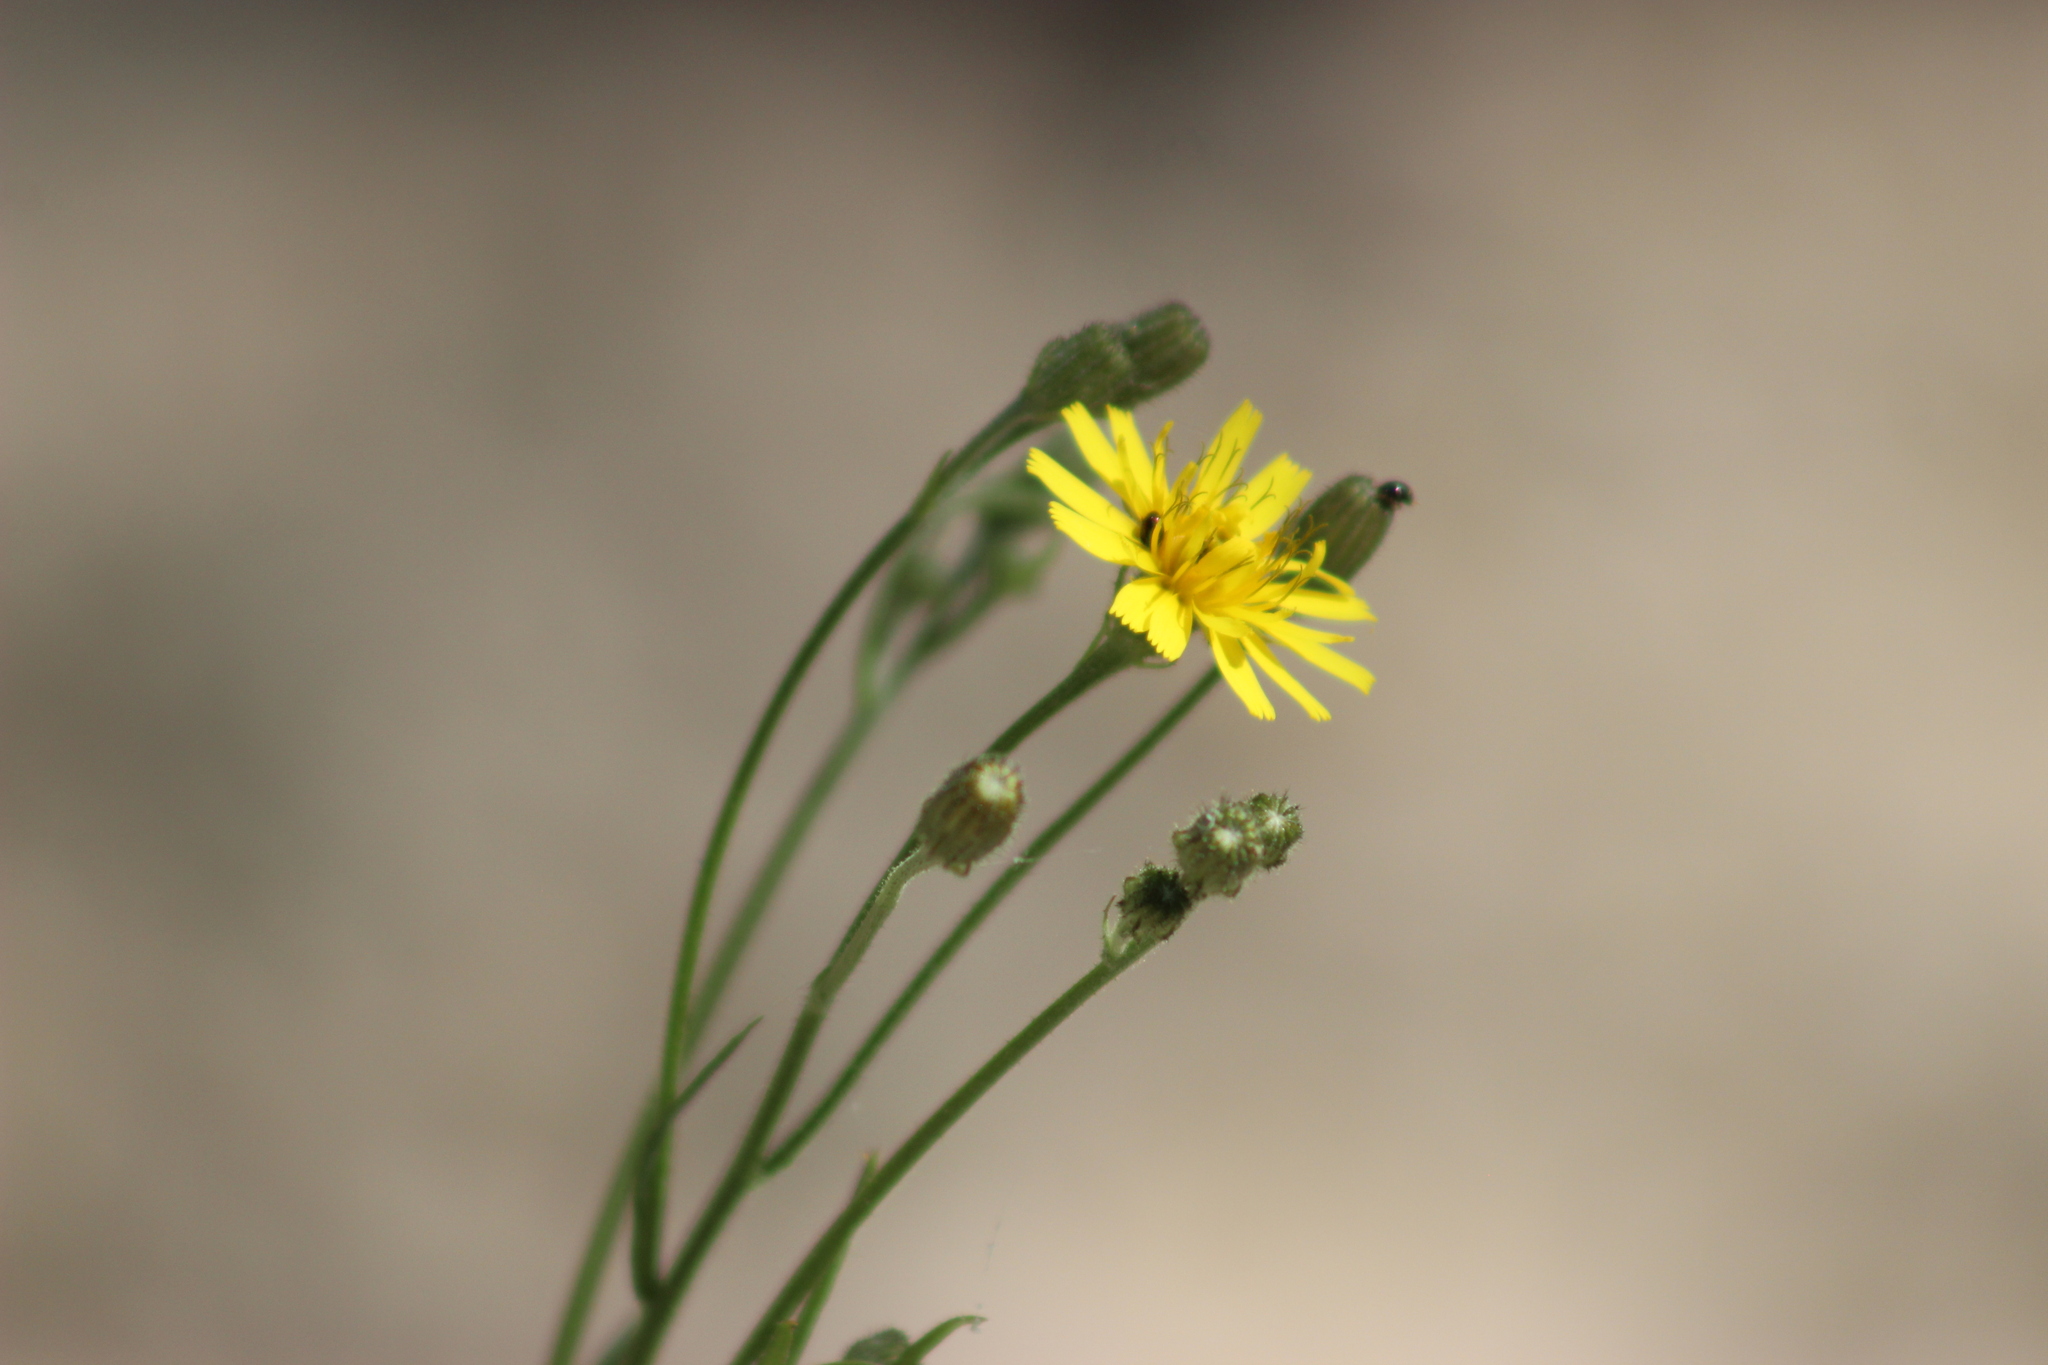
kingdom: Plantae
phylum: Tracheophyta
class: Magnoliopsida
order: Asterales
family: Asteraceae
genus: Crepis
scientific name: Crepis tectorum
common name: Narrow-leaved hawk's-beard
